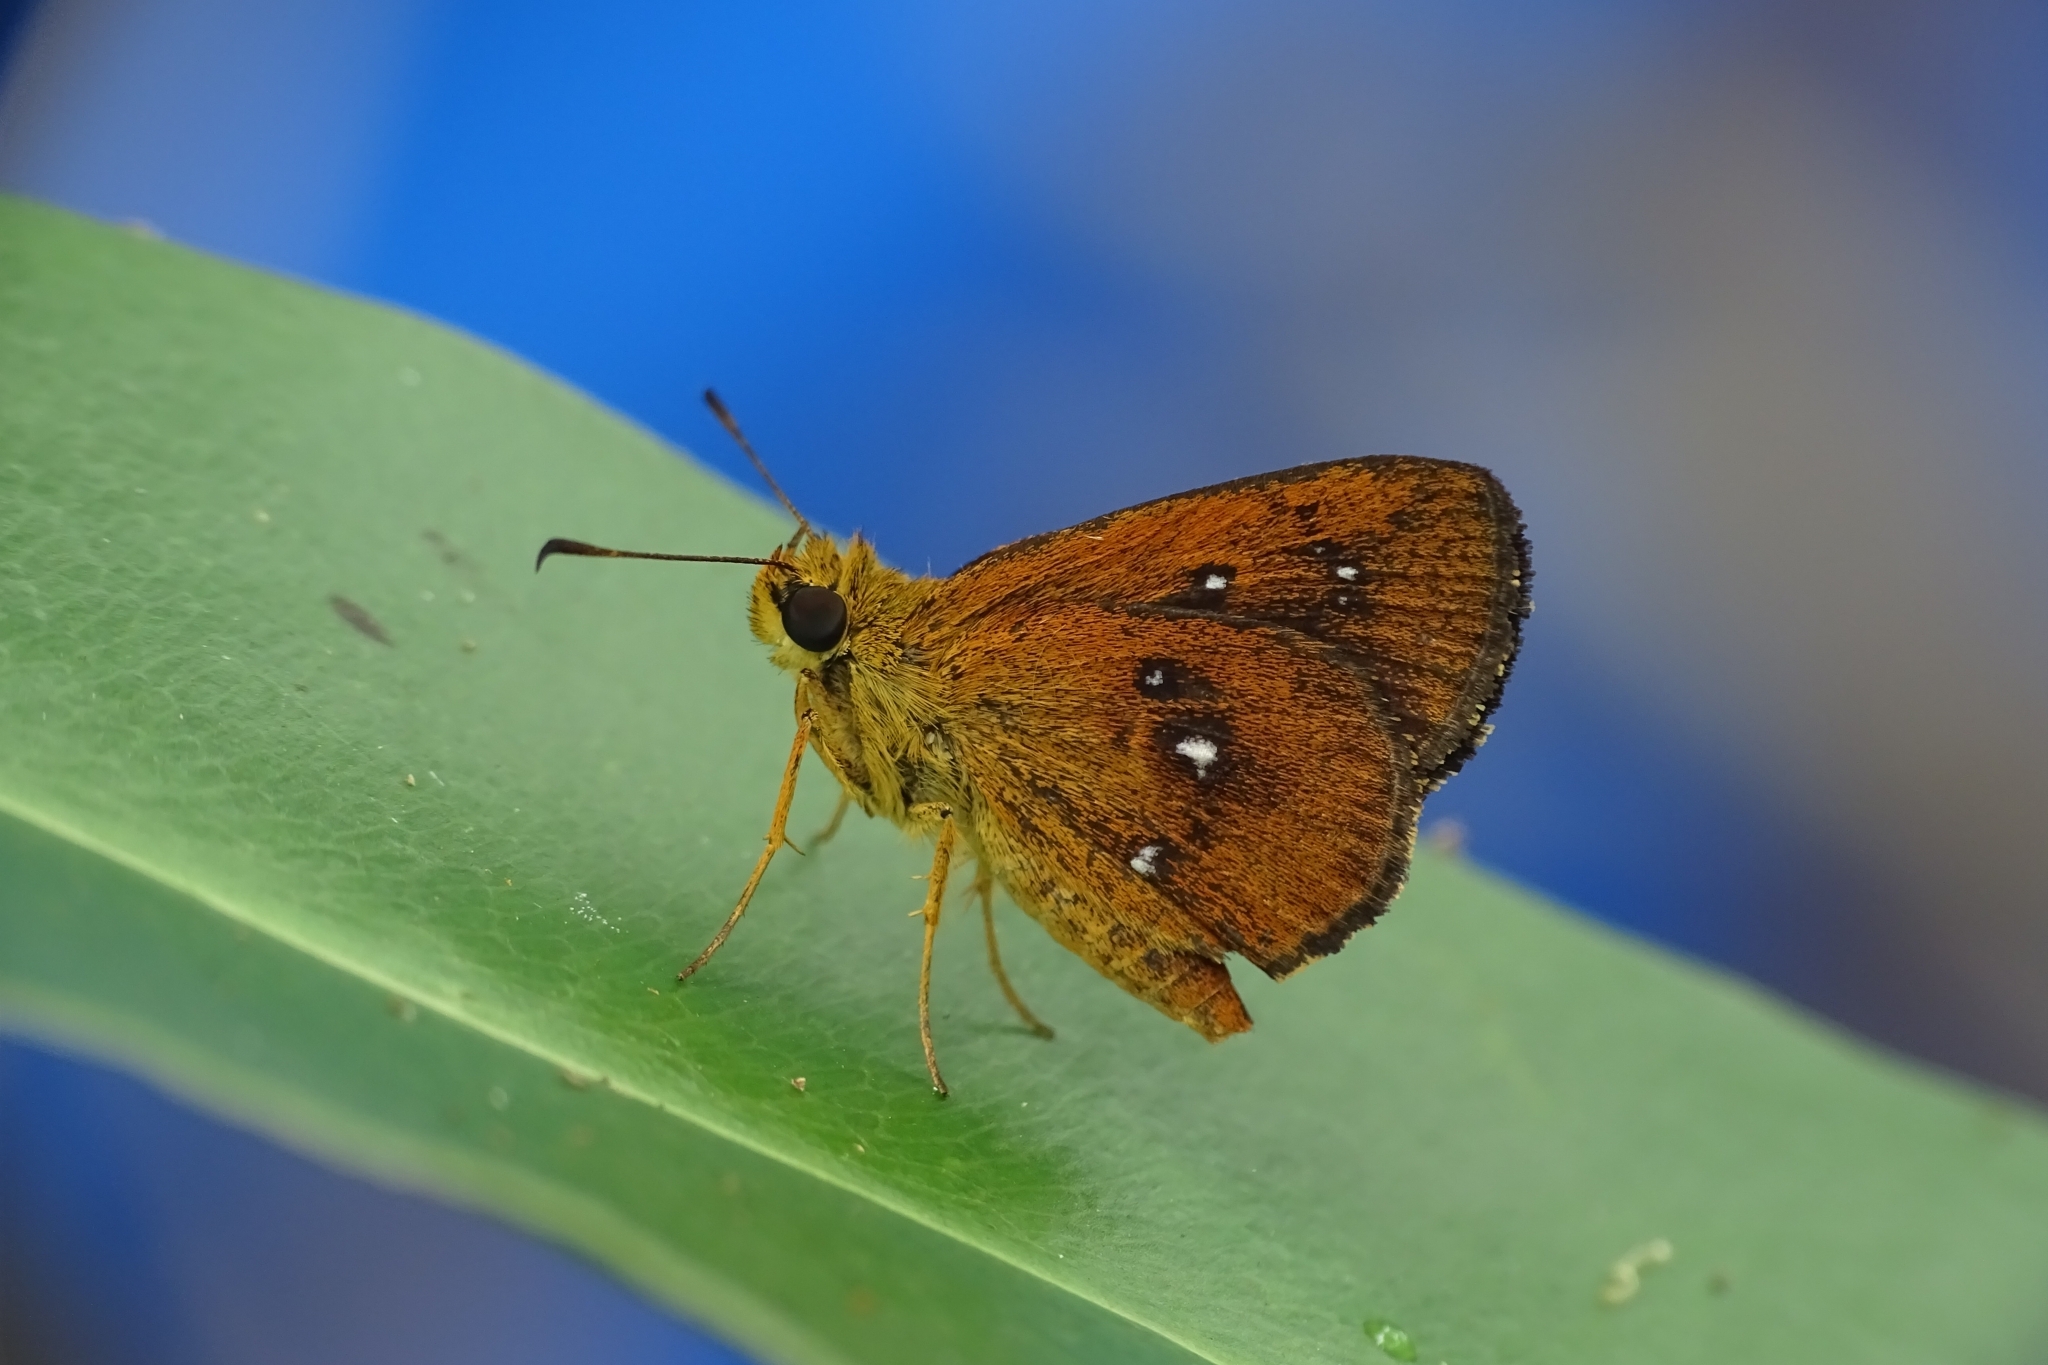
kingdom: Animalia
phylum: Arthropoda
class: Insecta
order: Lepidoptera
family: Hesperiidae
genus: Iambrix
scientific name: Iambrix salsala
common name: Chestnut bob
